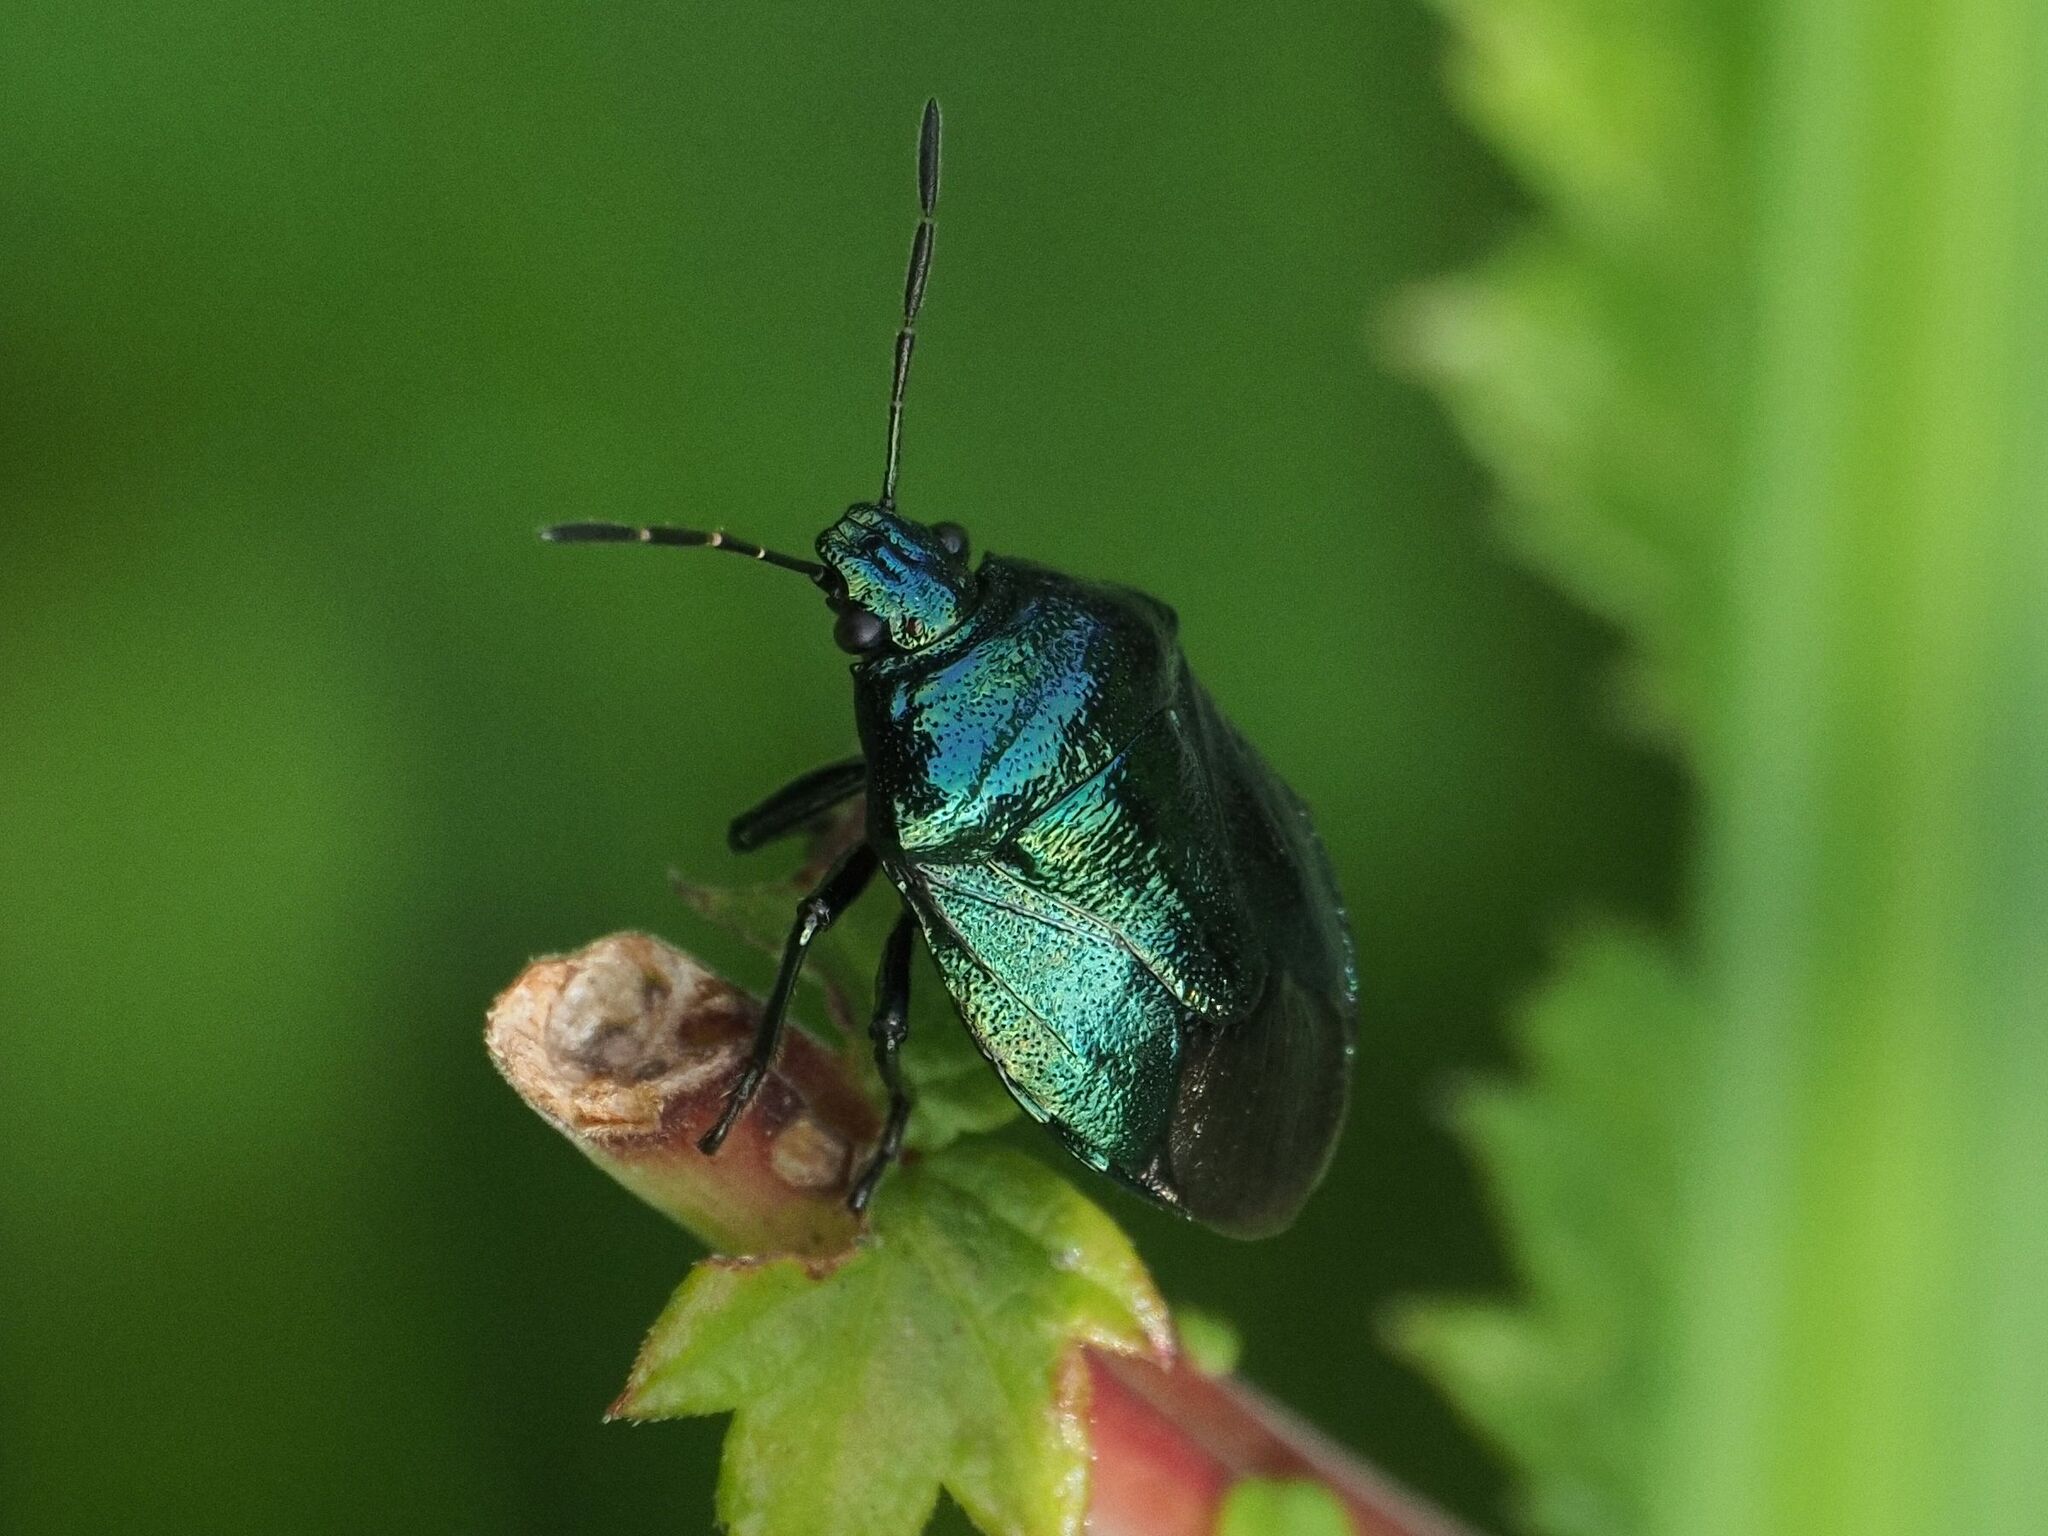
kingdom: Animalia
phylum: Arthropoda
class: Insecta
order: Hemiptera
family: Pentatomidae
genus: Zicrona
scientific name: Zicrona caerulea
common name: Blue shieldbug
